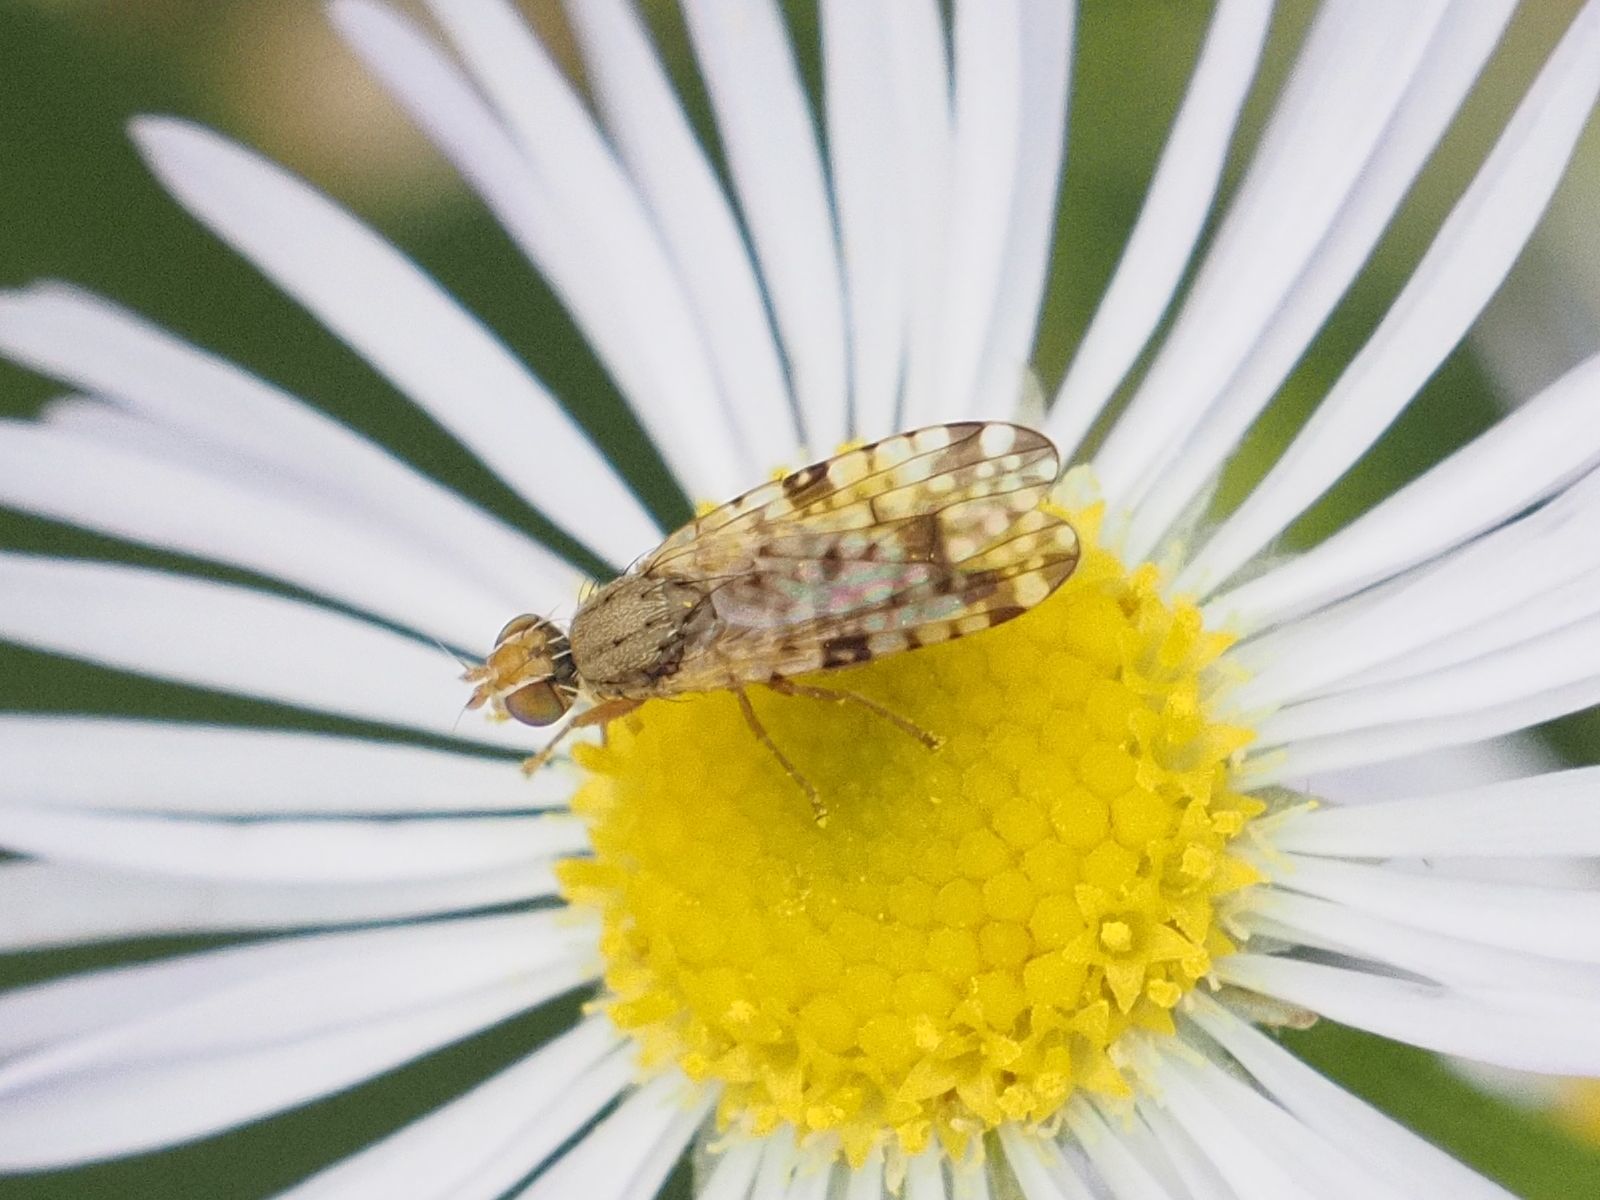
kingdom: Animalia
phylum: Arthropoda
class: Insecta
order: Diptera
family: Tephritidae
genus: Dioxyna
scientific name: Dioxyna bidentis
